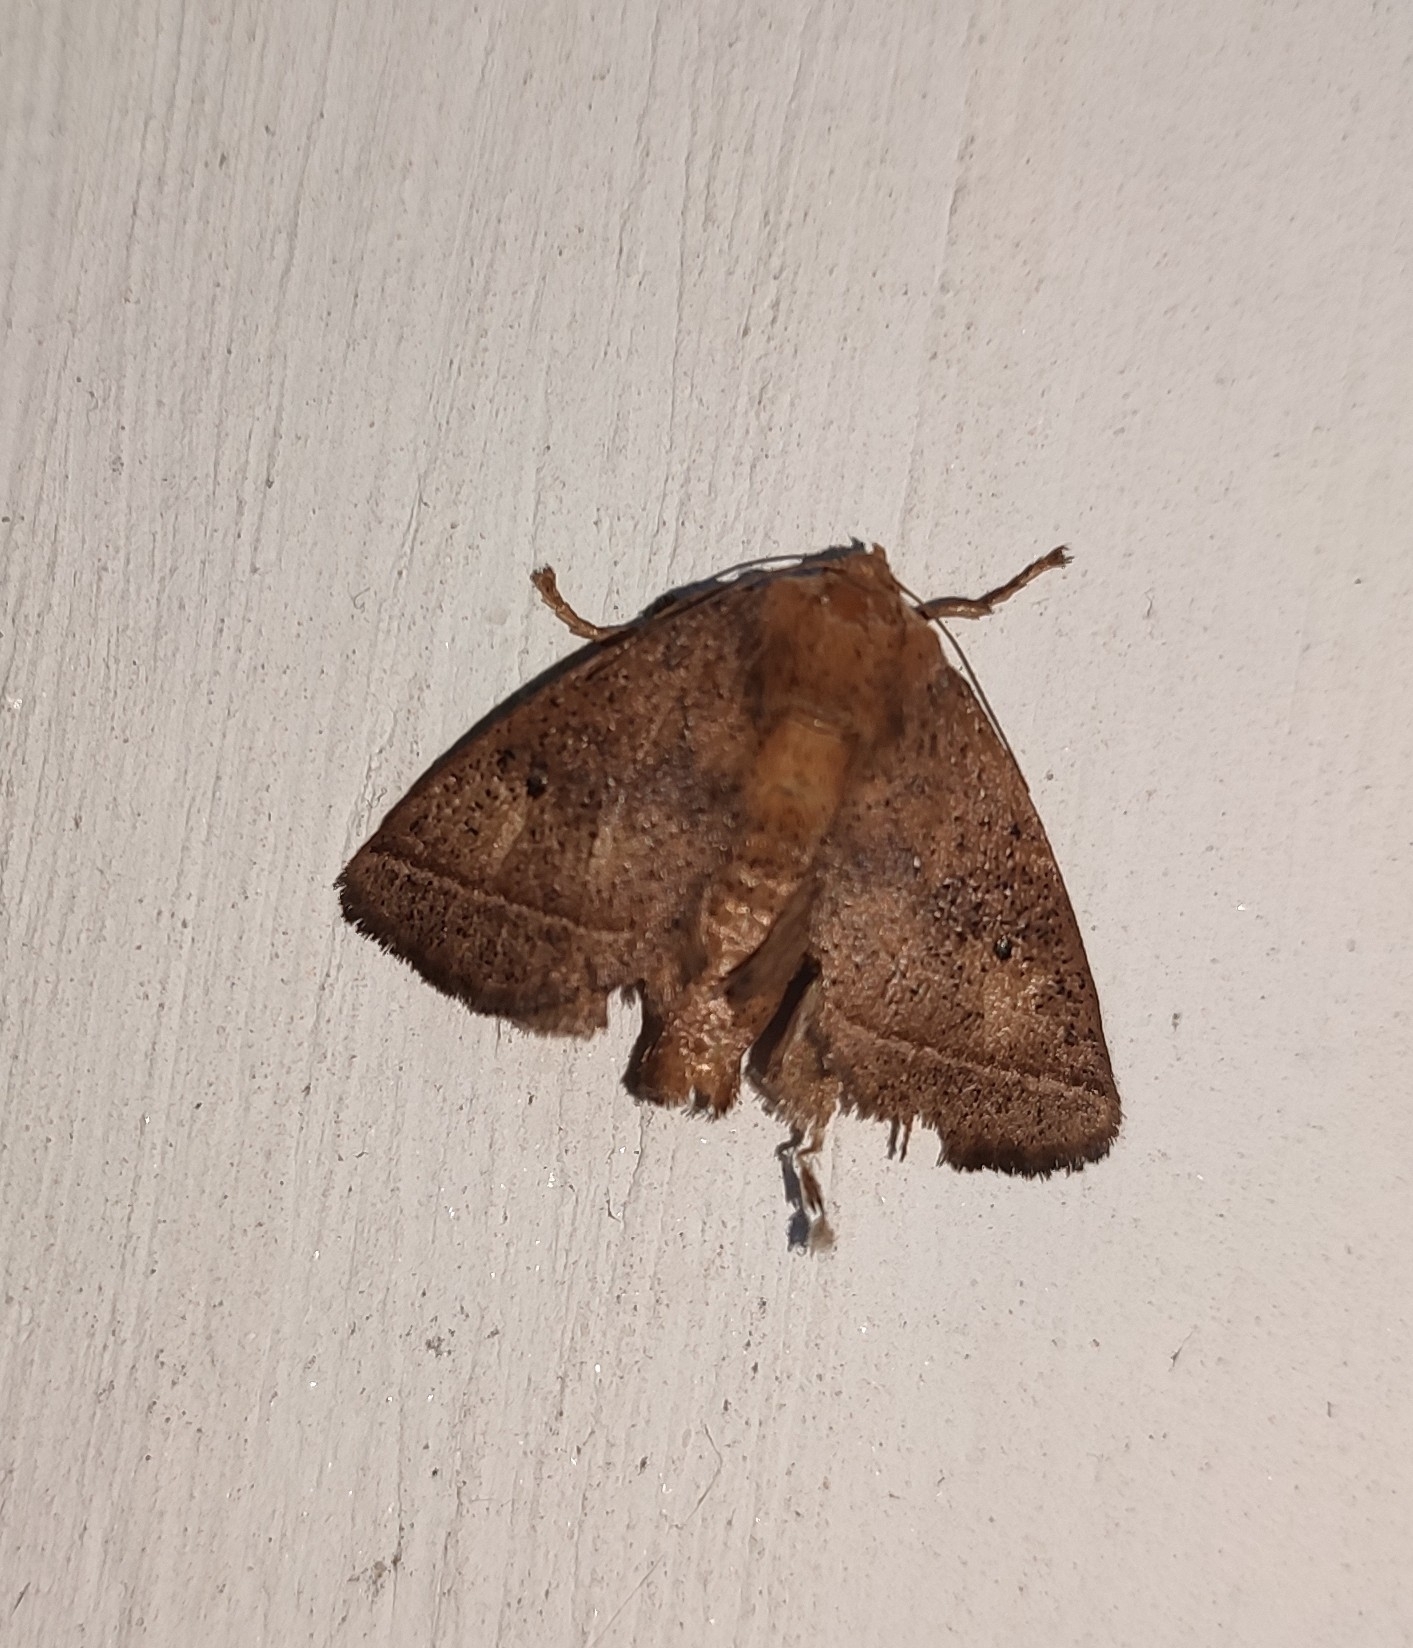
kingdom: Animalia
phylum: Arthropoda
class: Insecta
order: Lepidoptera
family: Limacodidae
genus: Hindothosea
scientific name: Hindothosea cervina
